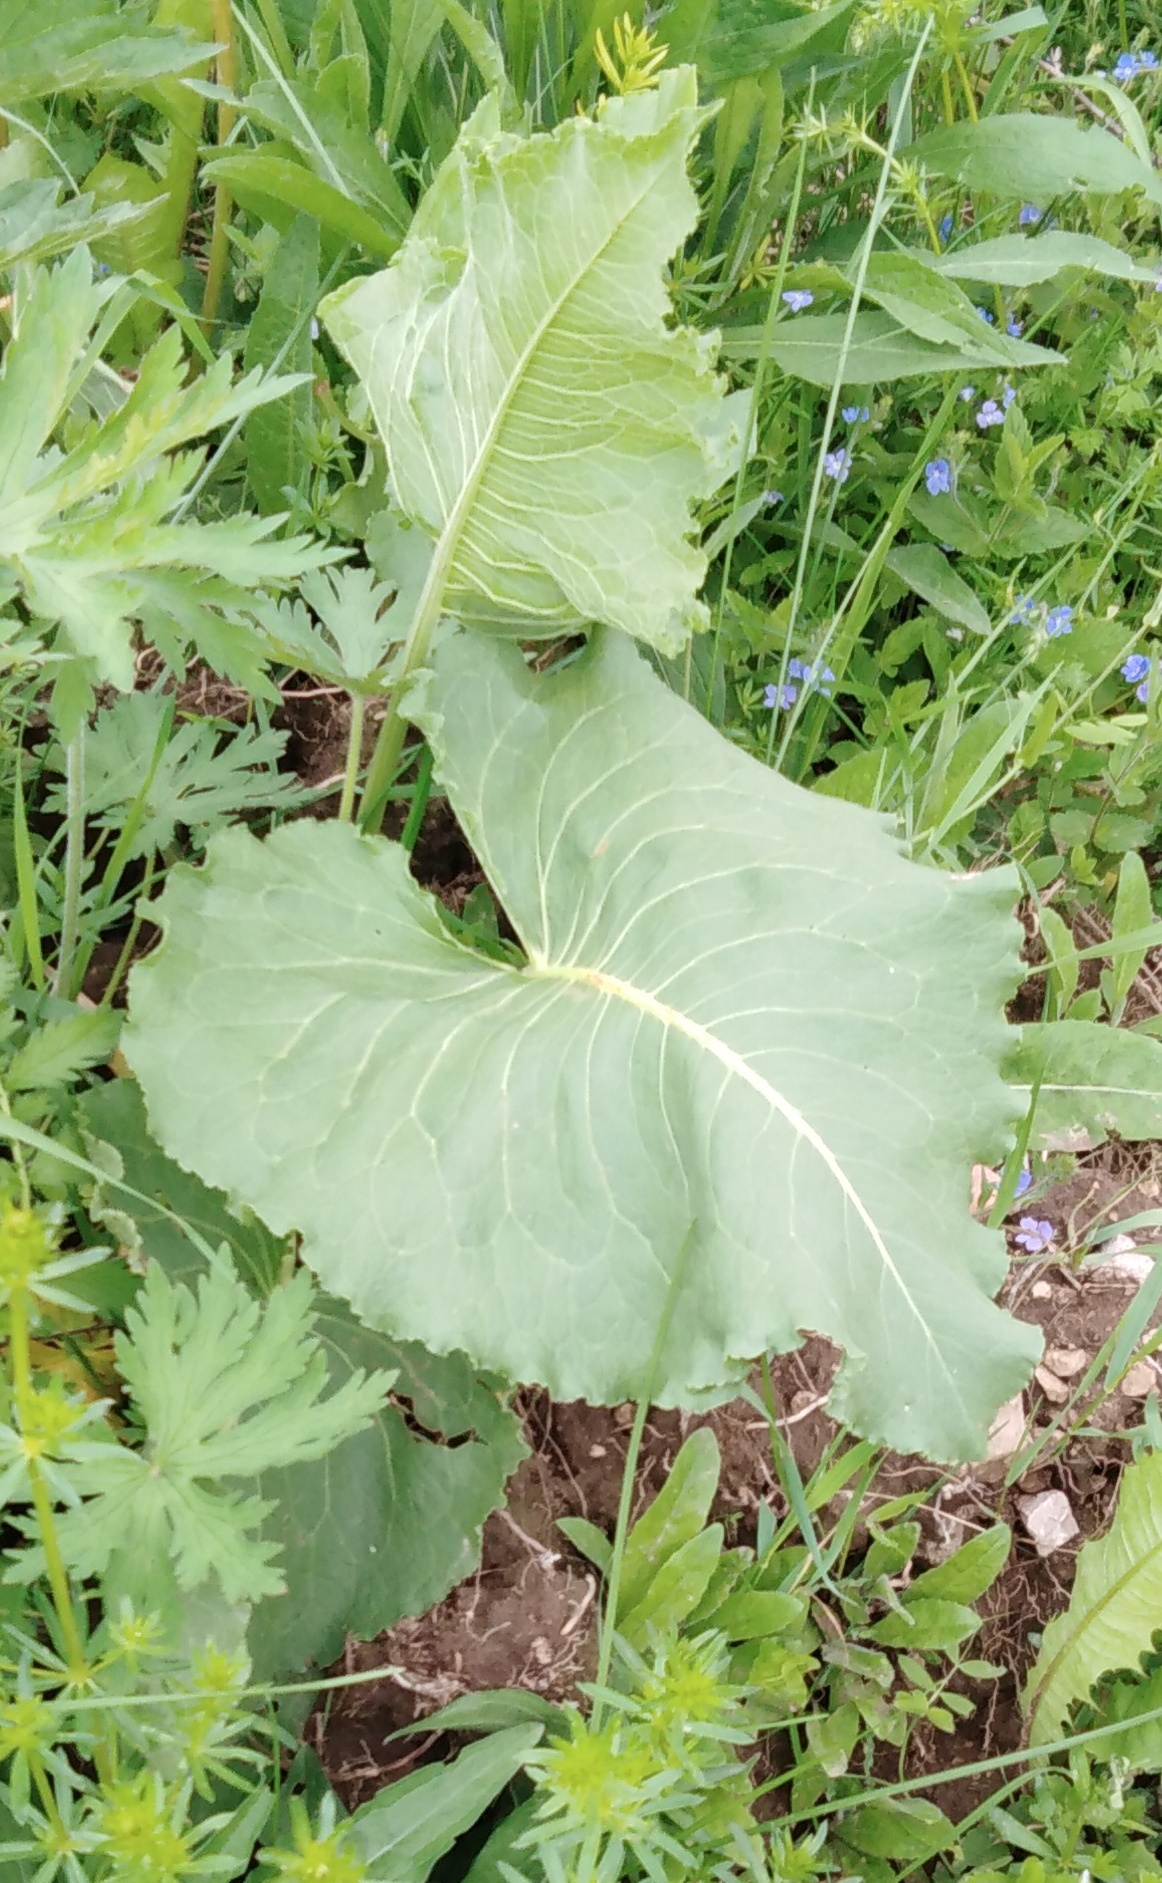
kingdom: Plantae
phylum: Tracheophyta
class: Magnoliopsida
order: Caryophyllales
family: Polygonaceae
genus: Rumex
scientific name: Rumex confertus
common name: Russian dock
